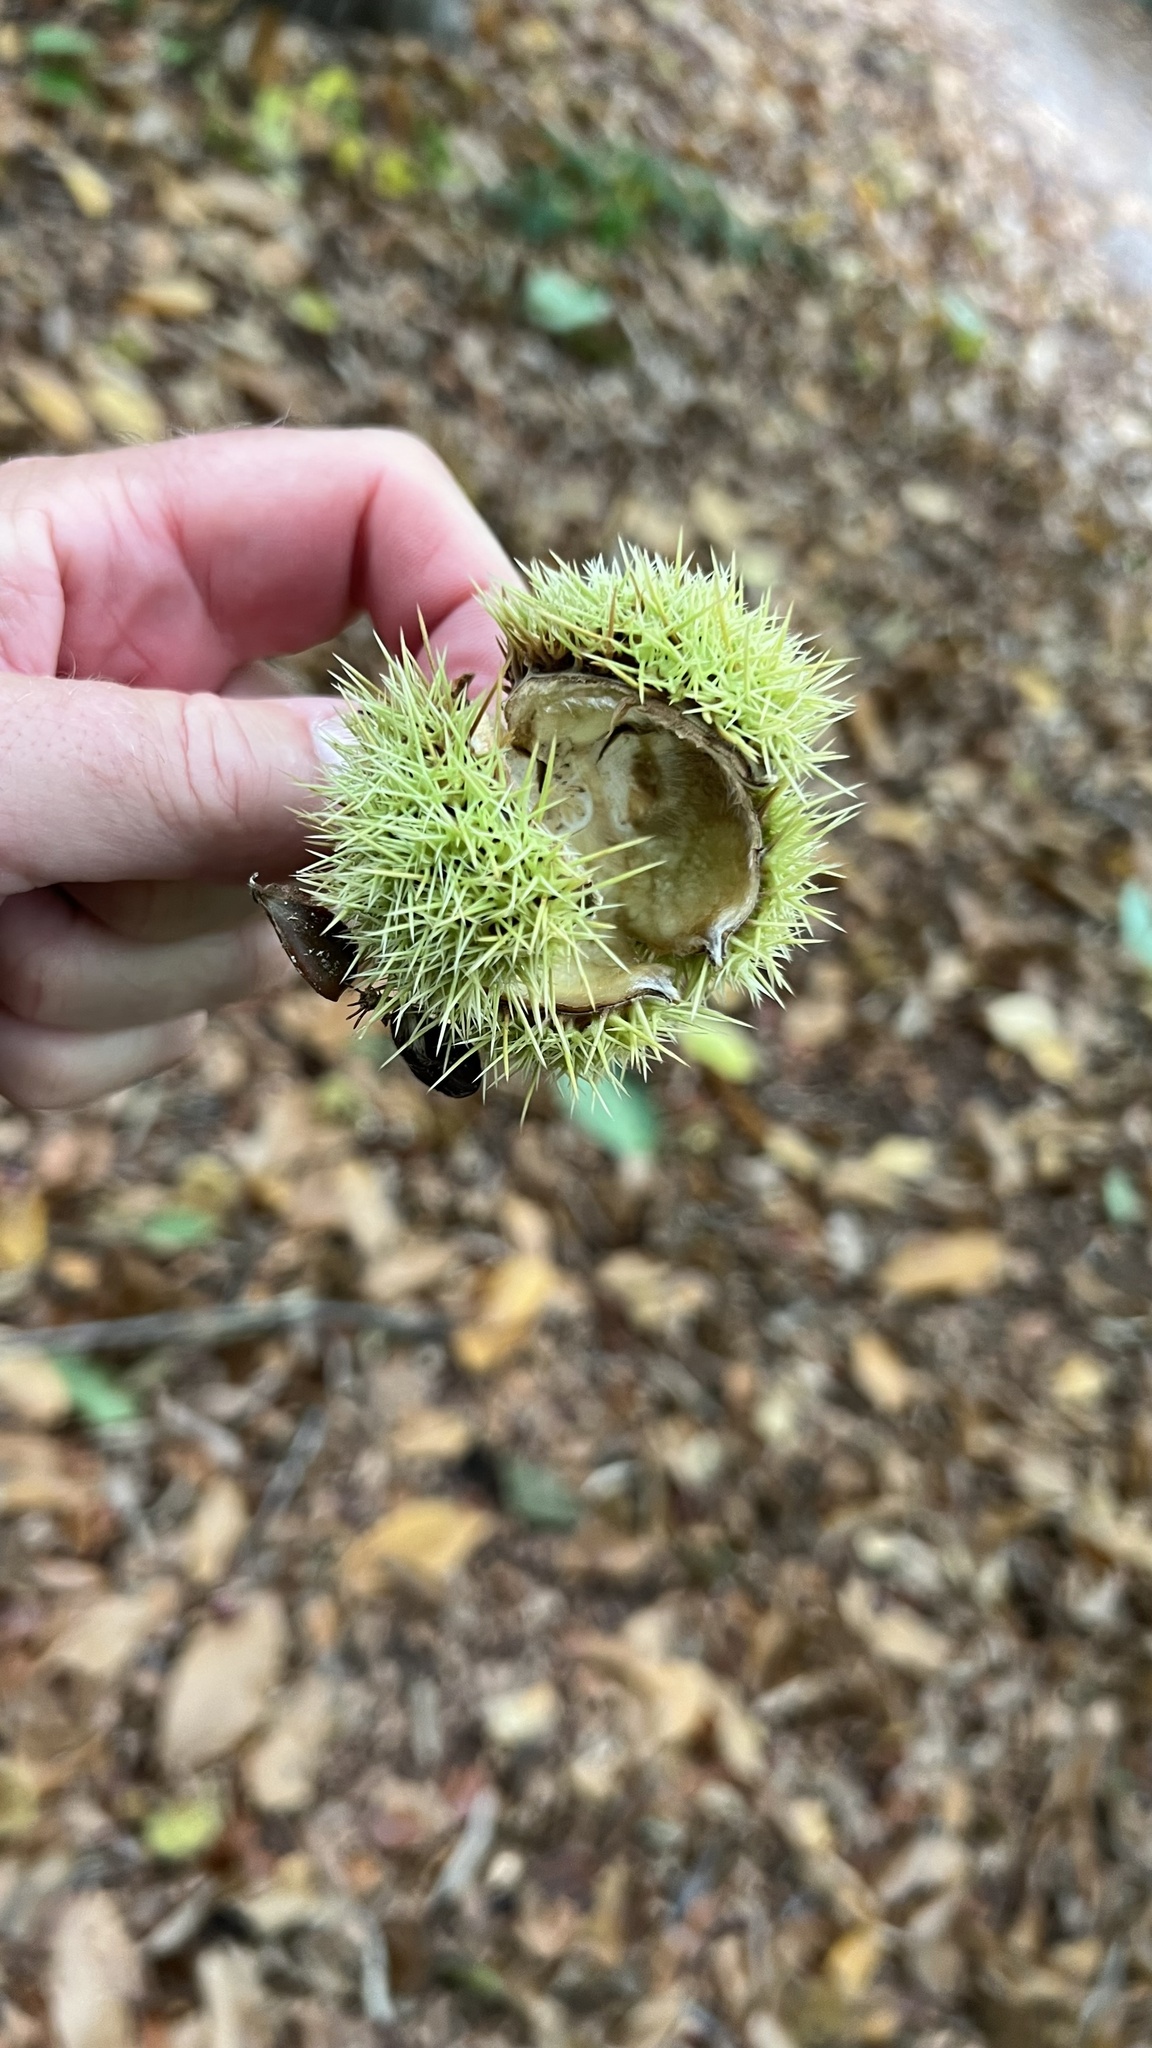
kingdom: Plantae
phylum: Tracheophyta
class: Magnoliopsida
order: Fagales
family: Fagaceae
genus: Castanea
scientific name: Castanea sativa
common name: Sweet chestnut
